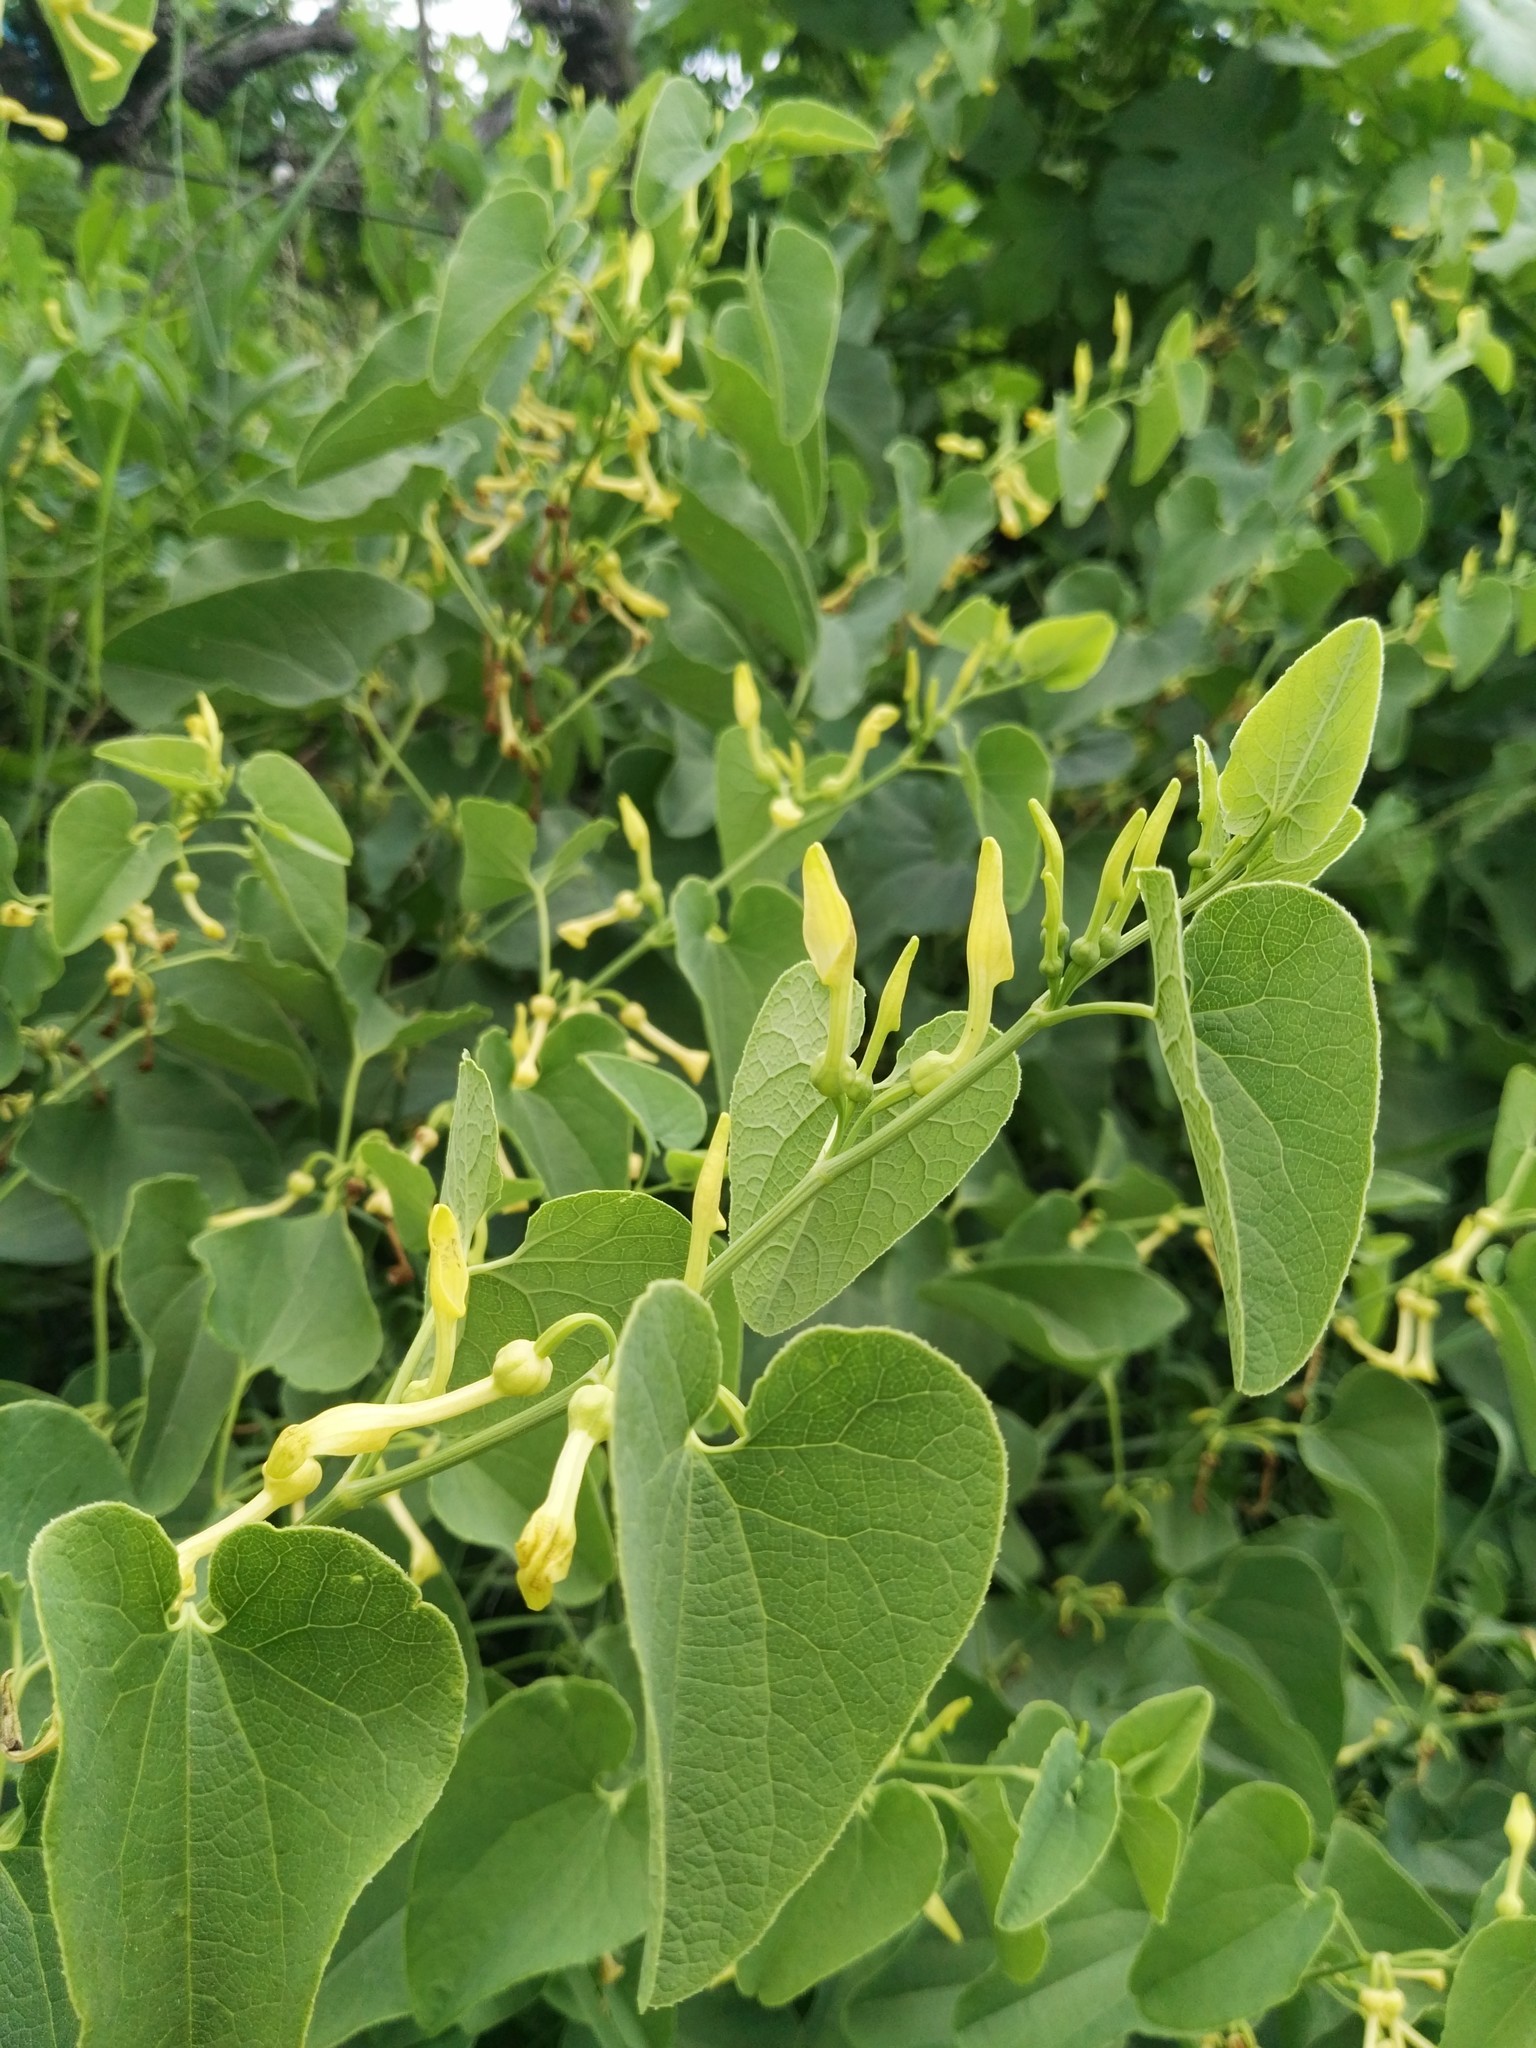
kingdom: Plantae
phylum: Tracheophyta
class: Magnoliopsida
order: Piperales
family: Aristolochiaceae
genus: Aristolochia
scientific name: Aristolochia clematitis
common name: Birthwort
